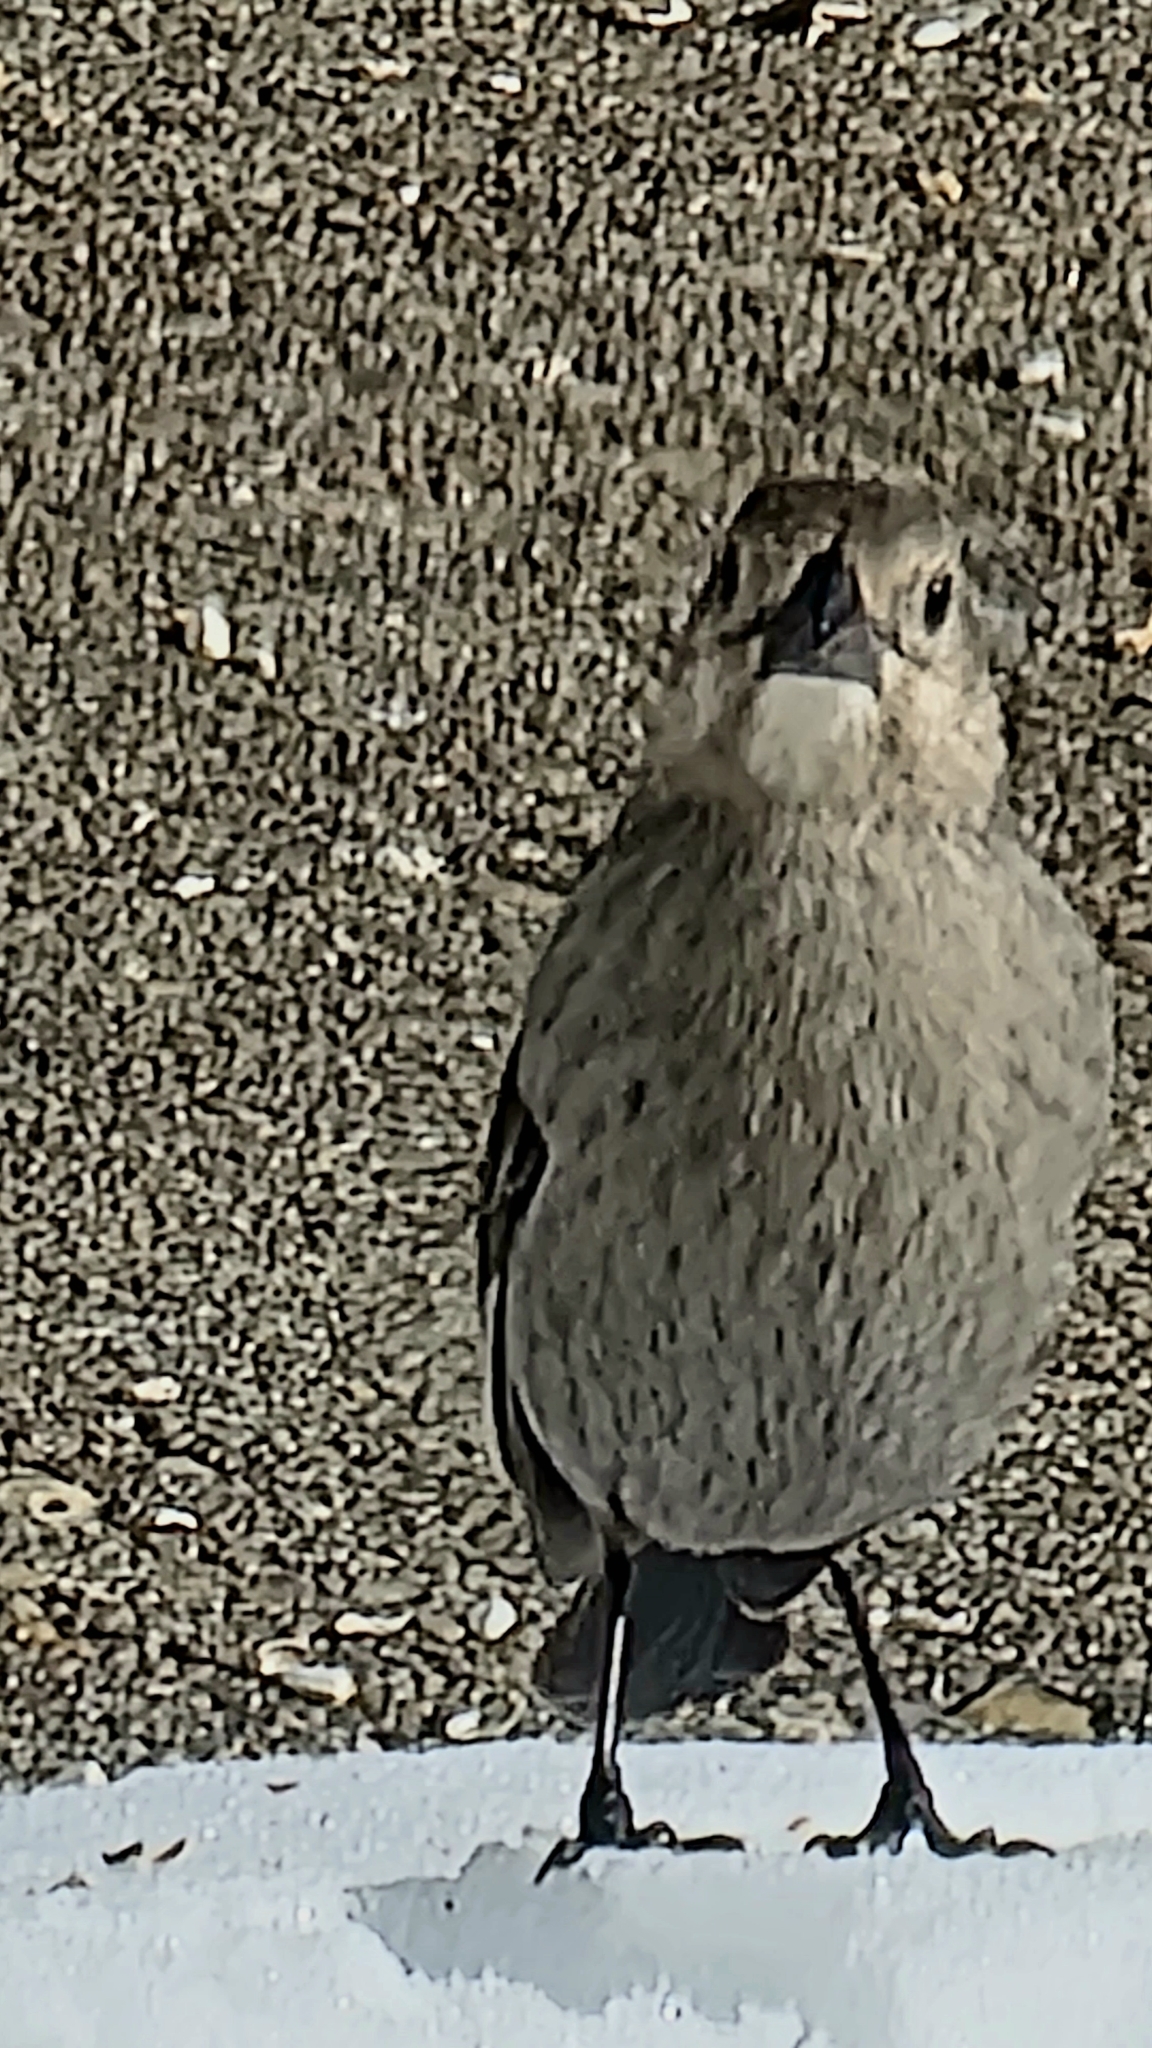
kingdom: Animalia
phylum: Chordata
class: Aves
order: Passeriformes
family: Icteridae
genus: Molothrus
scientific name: Molothrus ater
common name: Brown-headed cowbird
